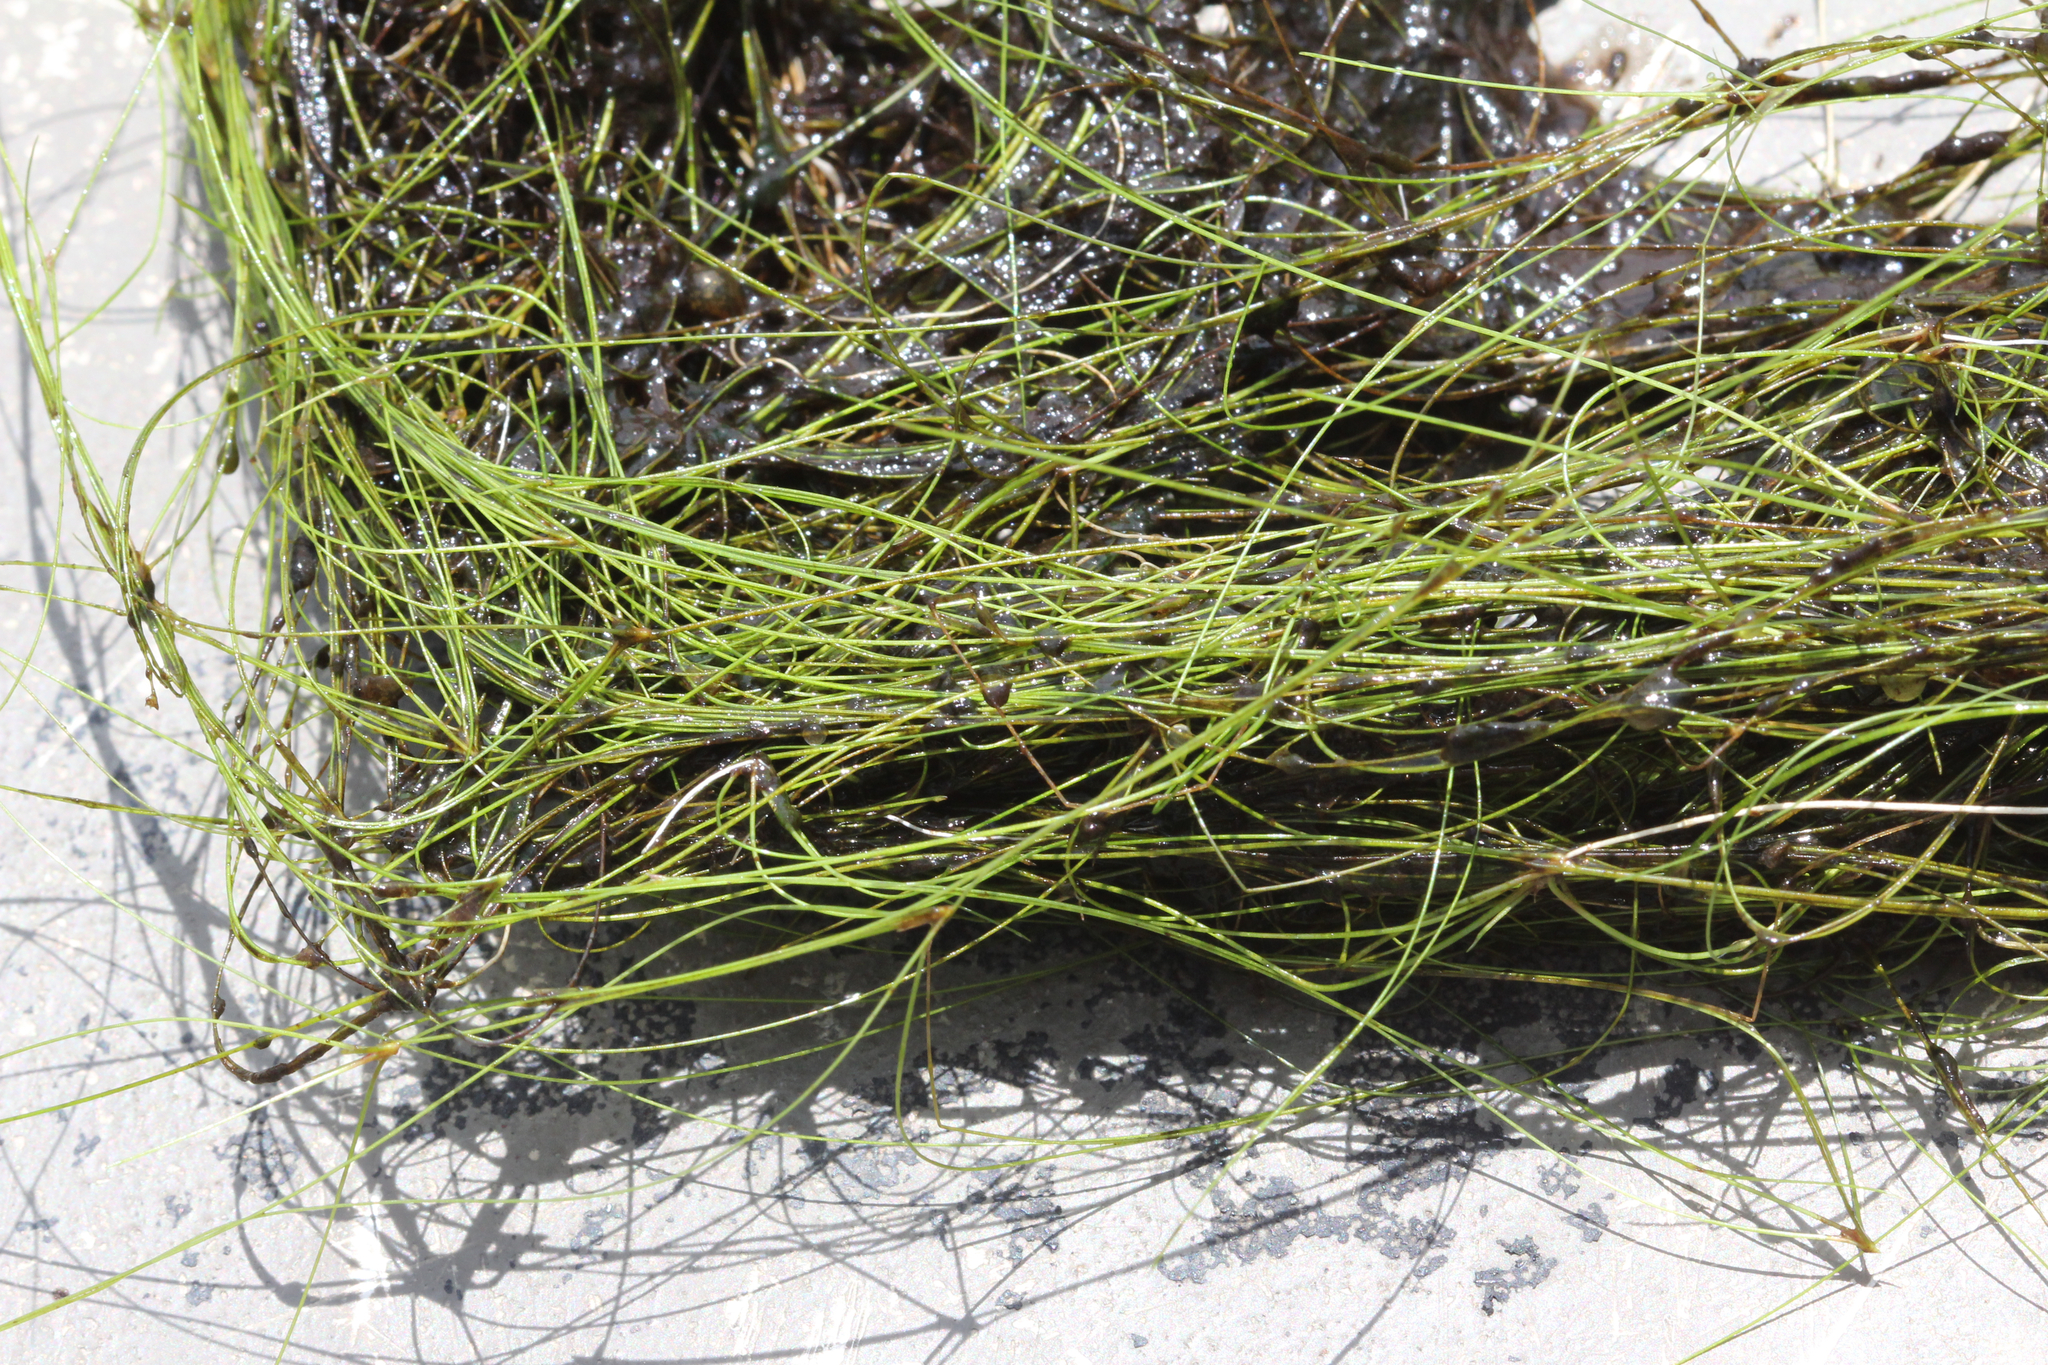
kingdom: Plantae
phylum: Tracheophyta
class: Liliopsida
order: Poales
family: Cyperaceae
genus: Eleocharis
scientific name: Eleocharis vivipara
